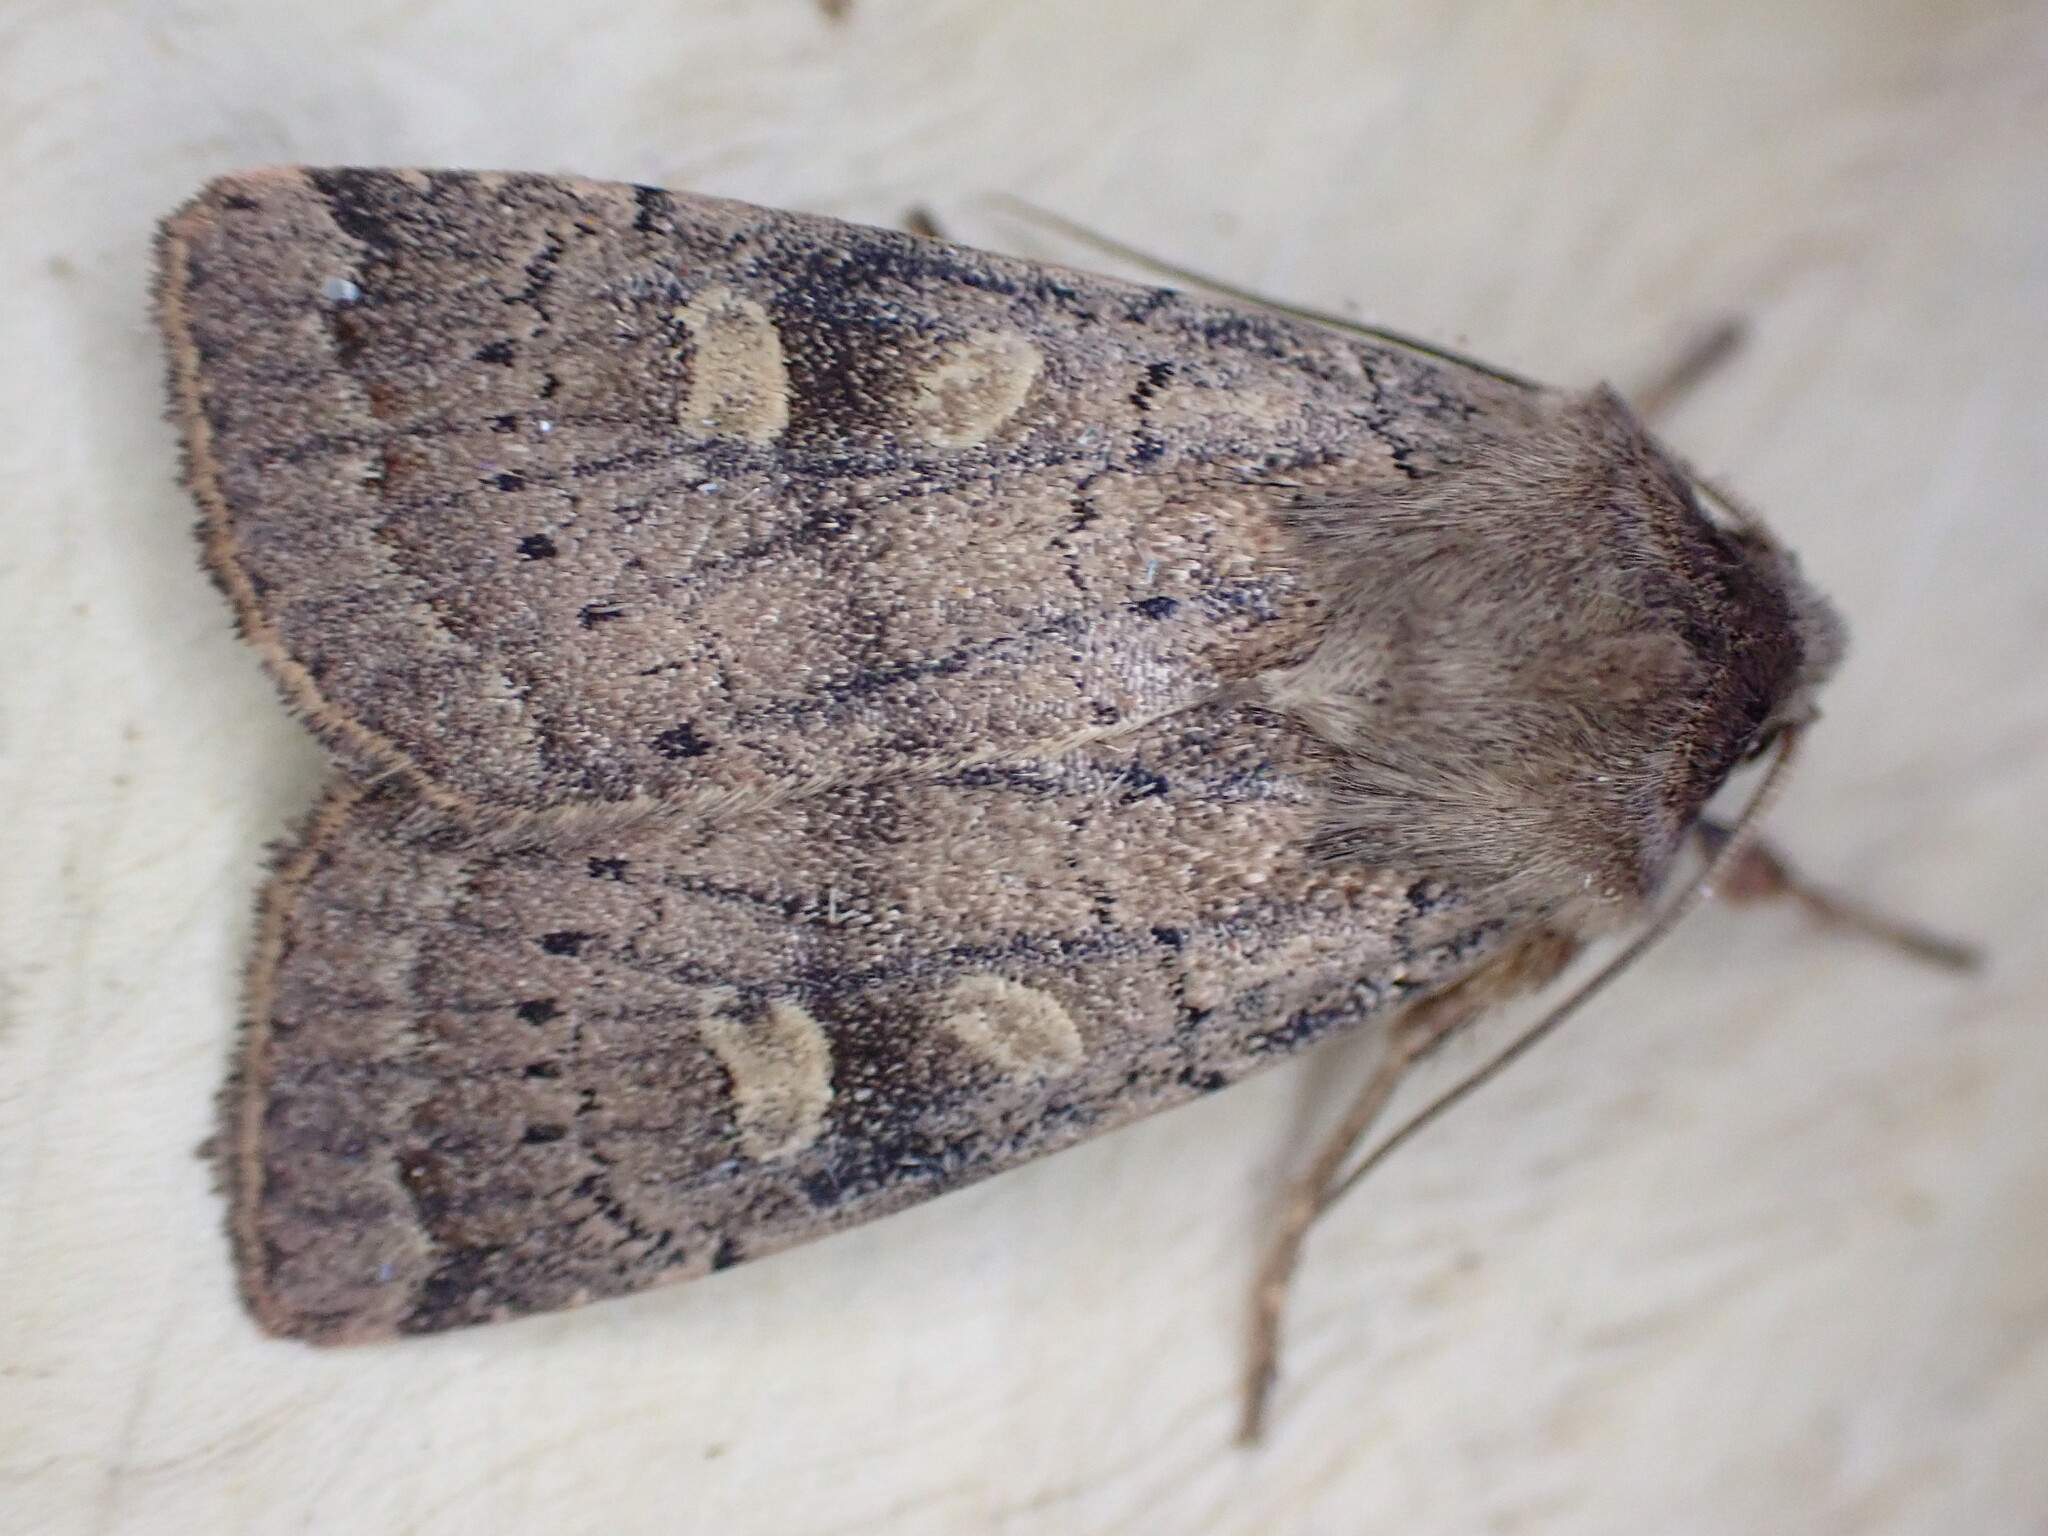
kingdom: Animalia
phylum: Arthropoda
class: Insecta
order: Lepidoptera
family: Noctuidae
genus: Xestia
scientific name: Xestia xanthographa
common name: Square-spot rustic
